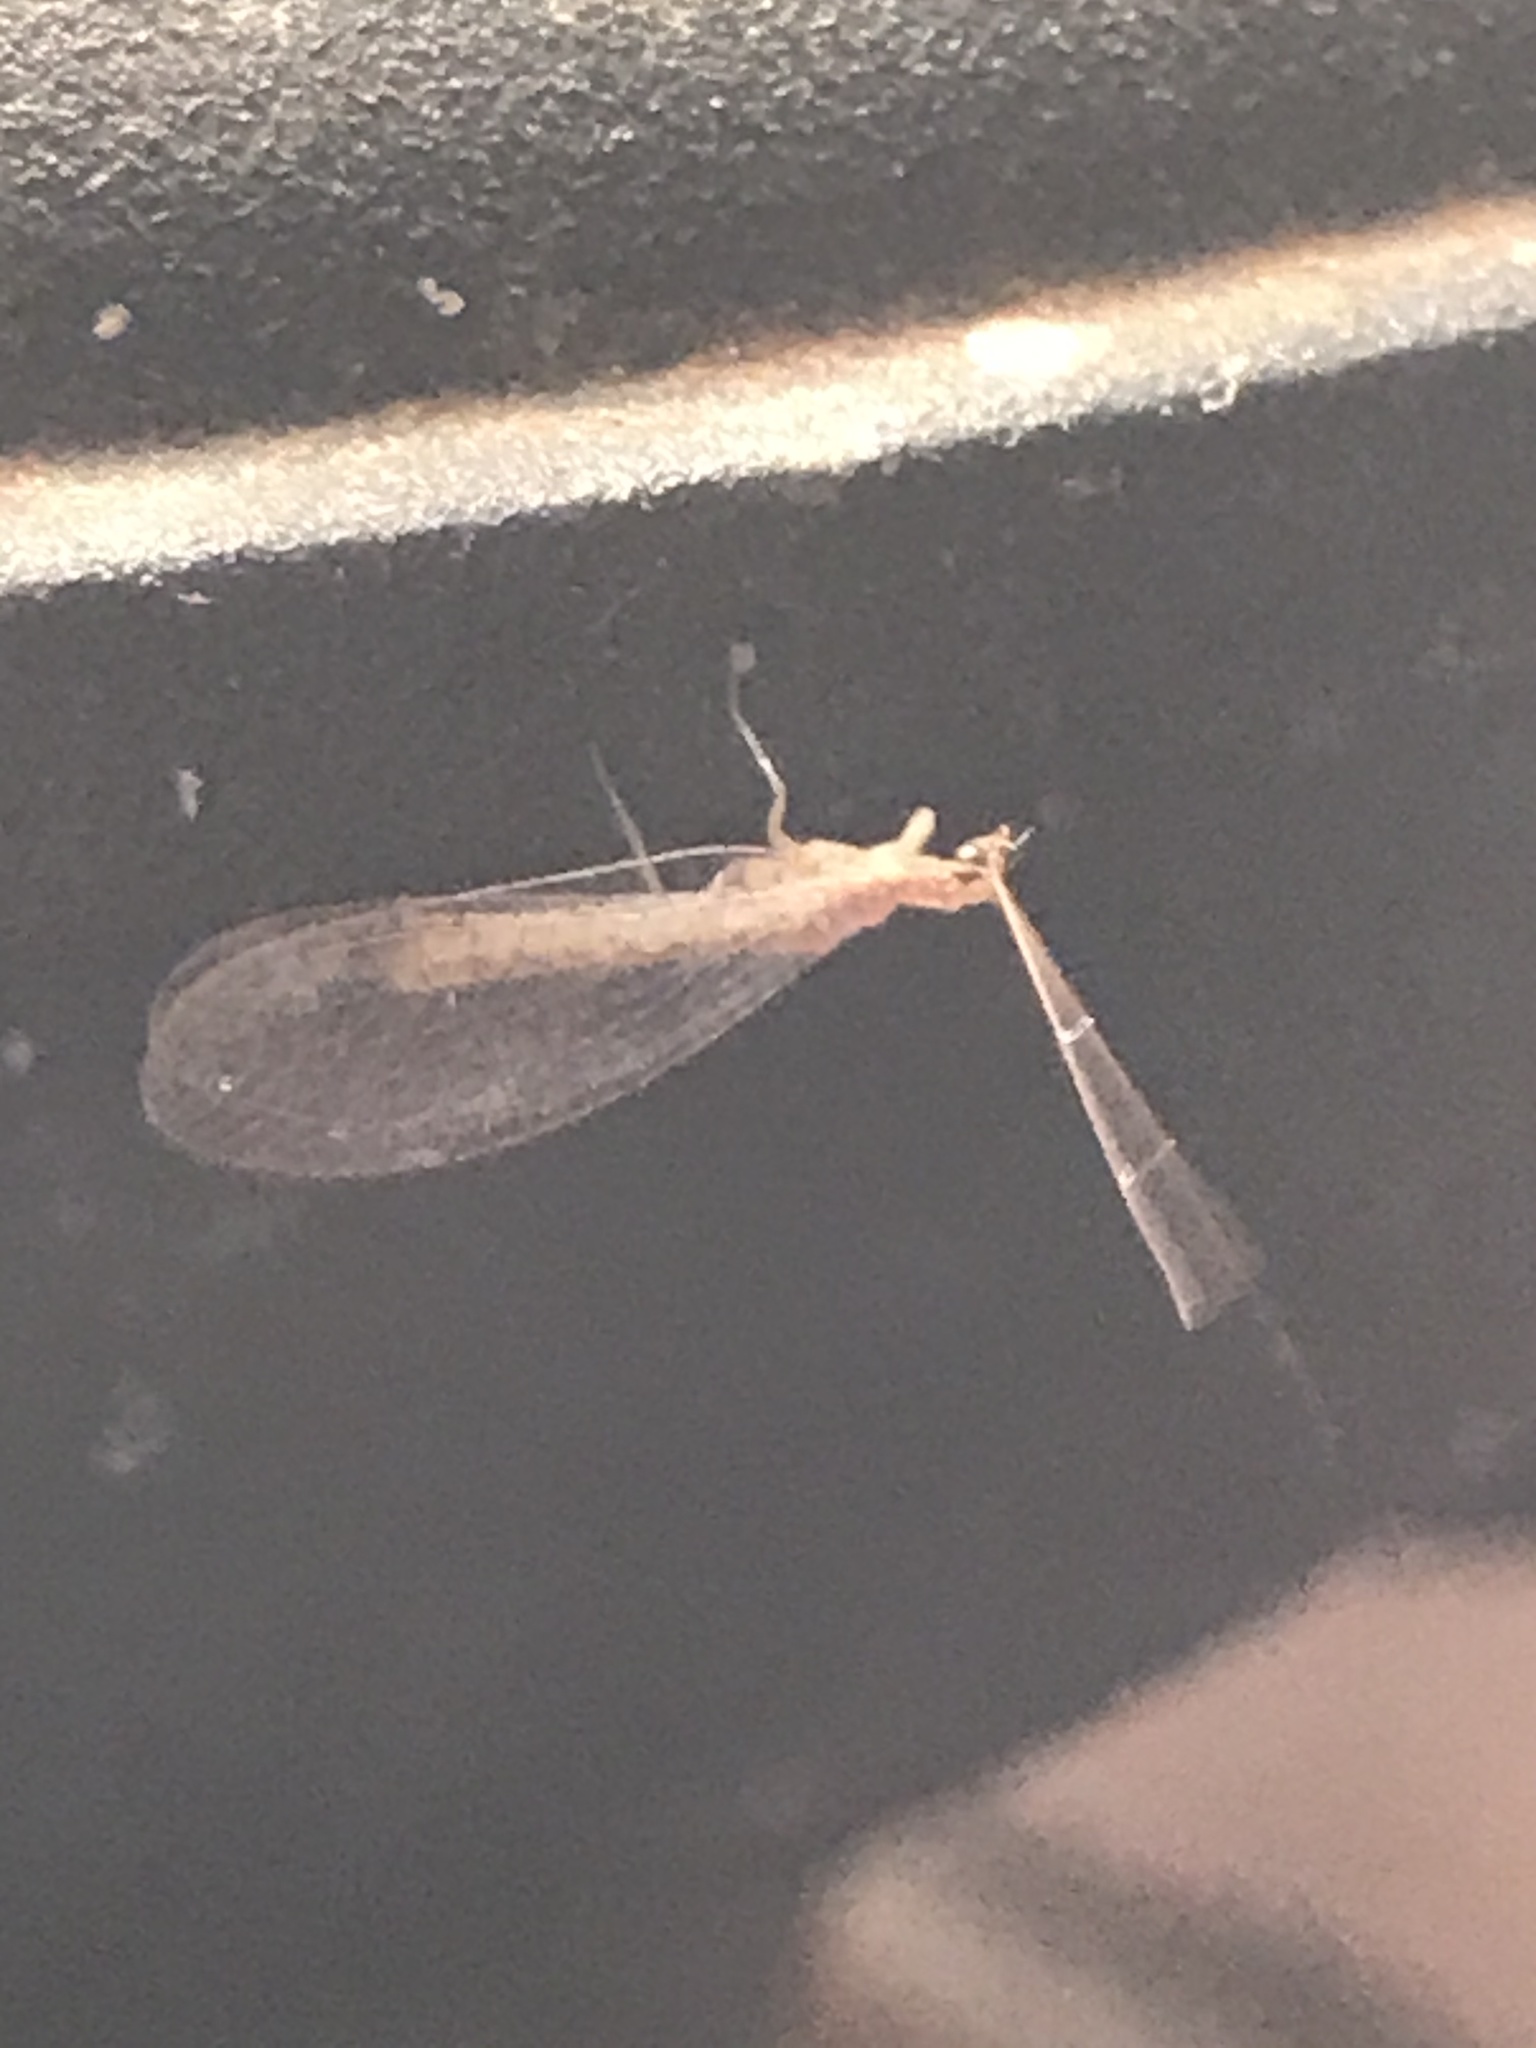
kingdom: Animalia
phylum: Arthropoda
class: Insecta
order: Neuroptera
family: Chrysopidae
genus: Eremochrysa
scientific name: Eremochrysa
